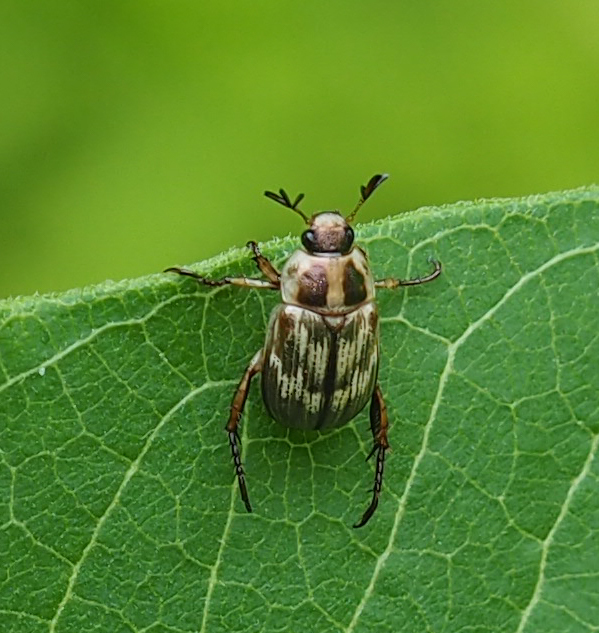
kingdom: Animalia
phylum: Arthropoda
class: Insecta
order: Coleoptera
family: Scarabaeidae
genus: Exomala
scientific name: Exomala orientalis
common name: Oriental beetle
